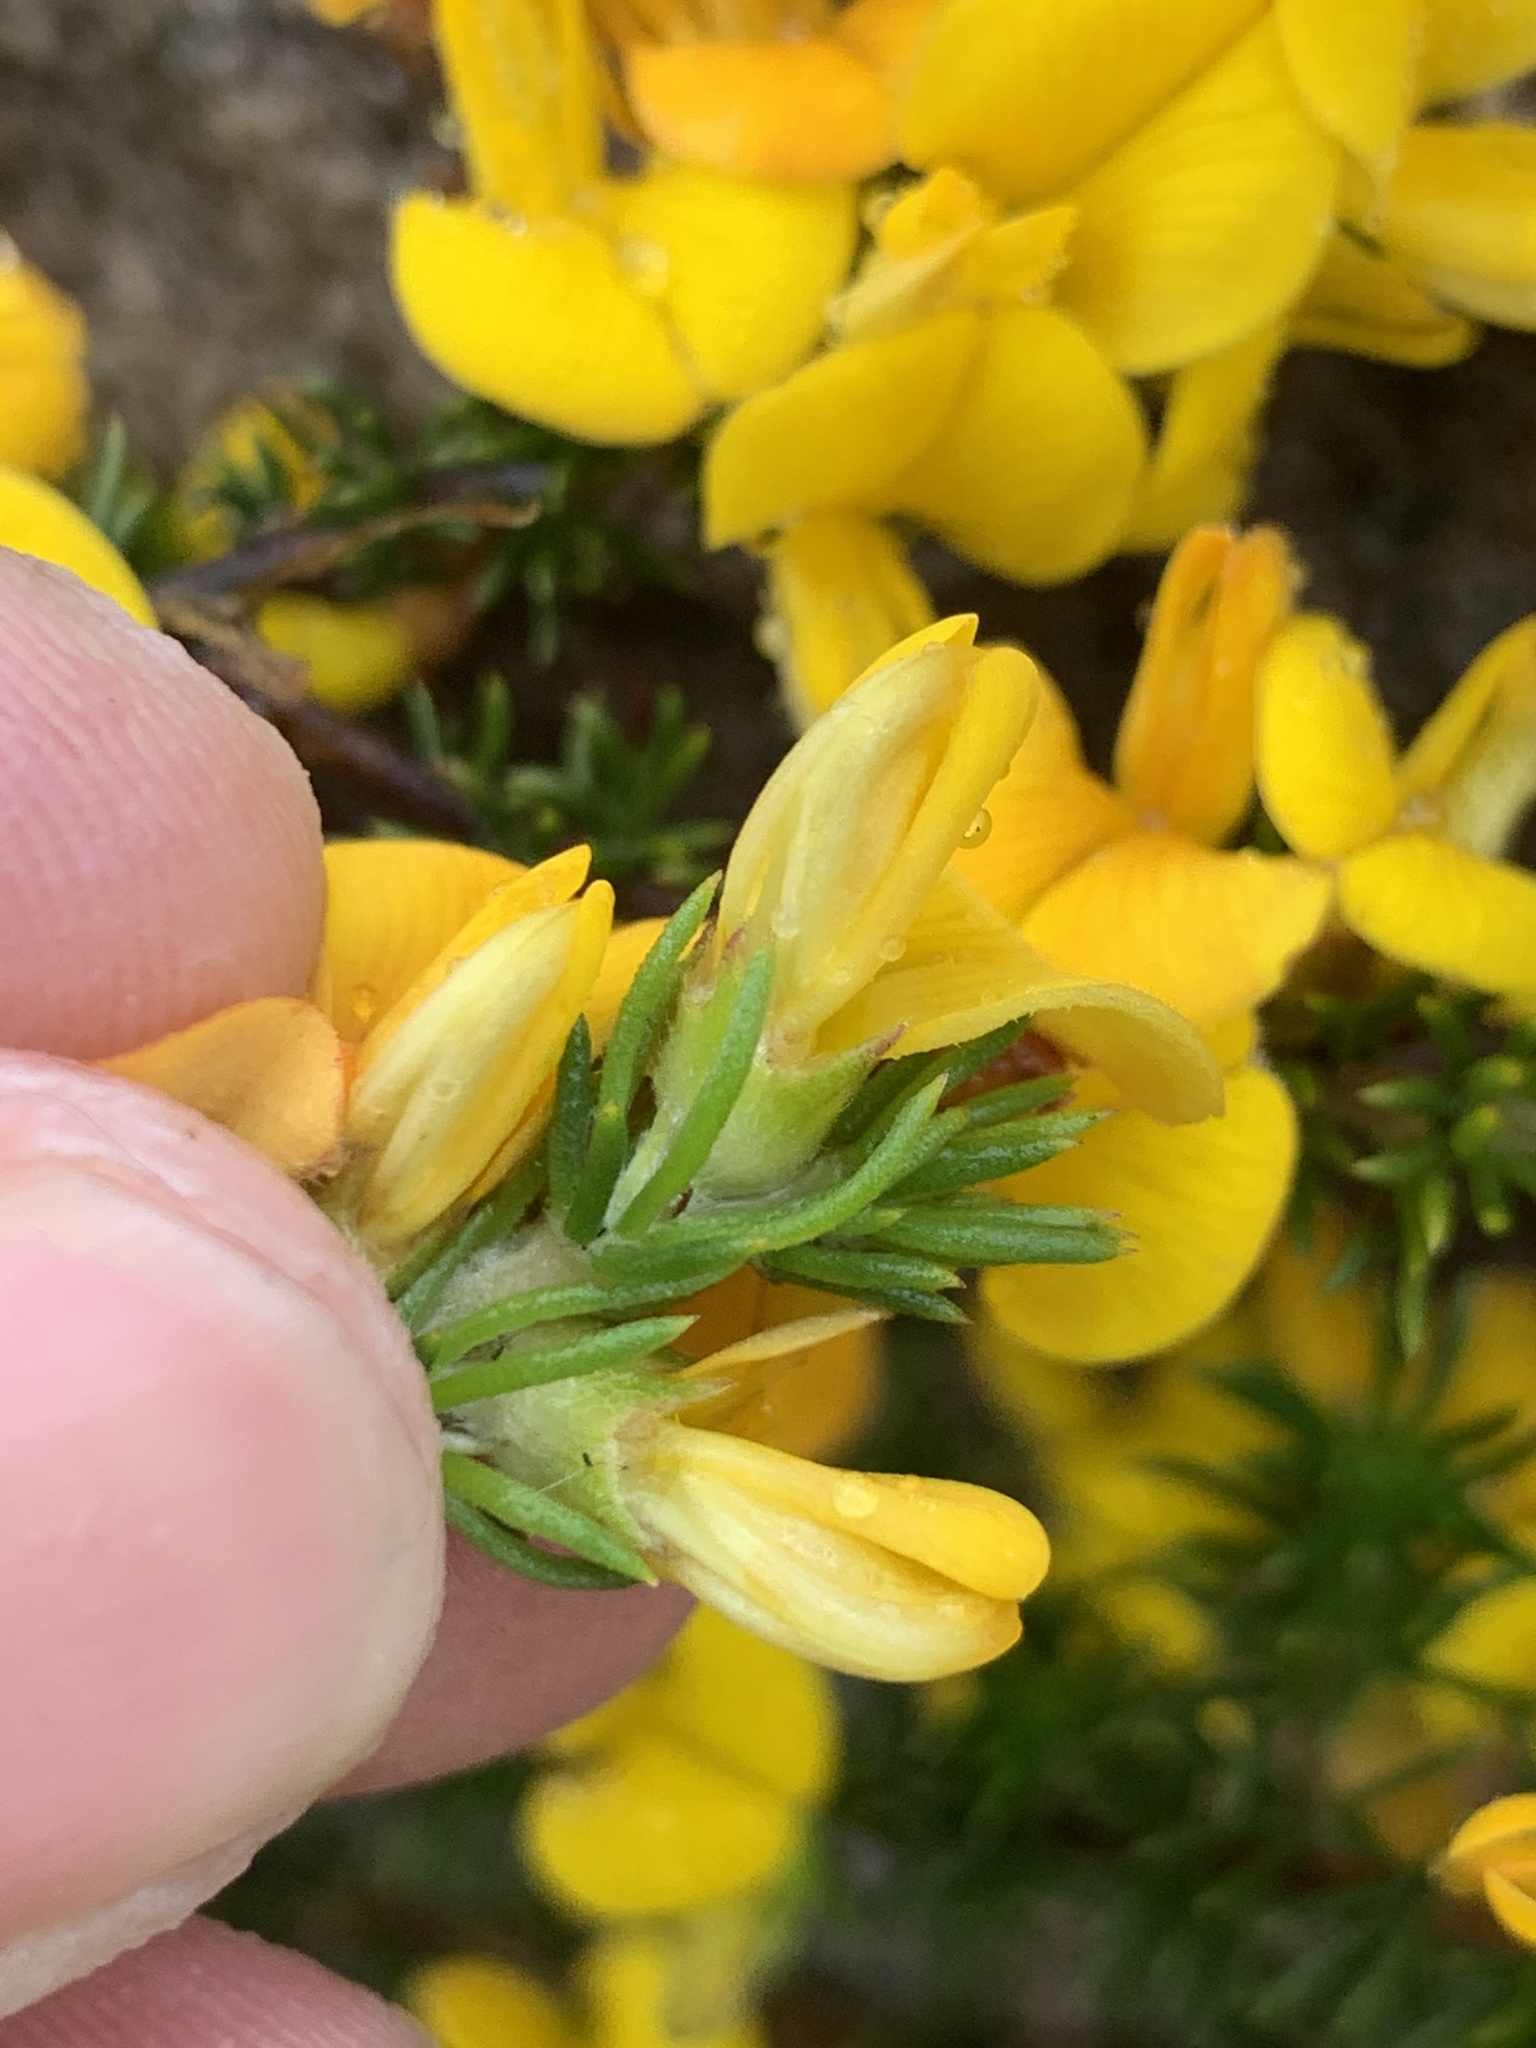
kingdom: Plantae
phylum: Tracheophyta
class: Magnoliopsida
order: Fabales
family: Fabaceae
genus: Aspalathus
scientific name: Aspalathus carnosa
